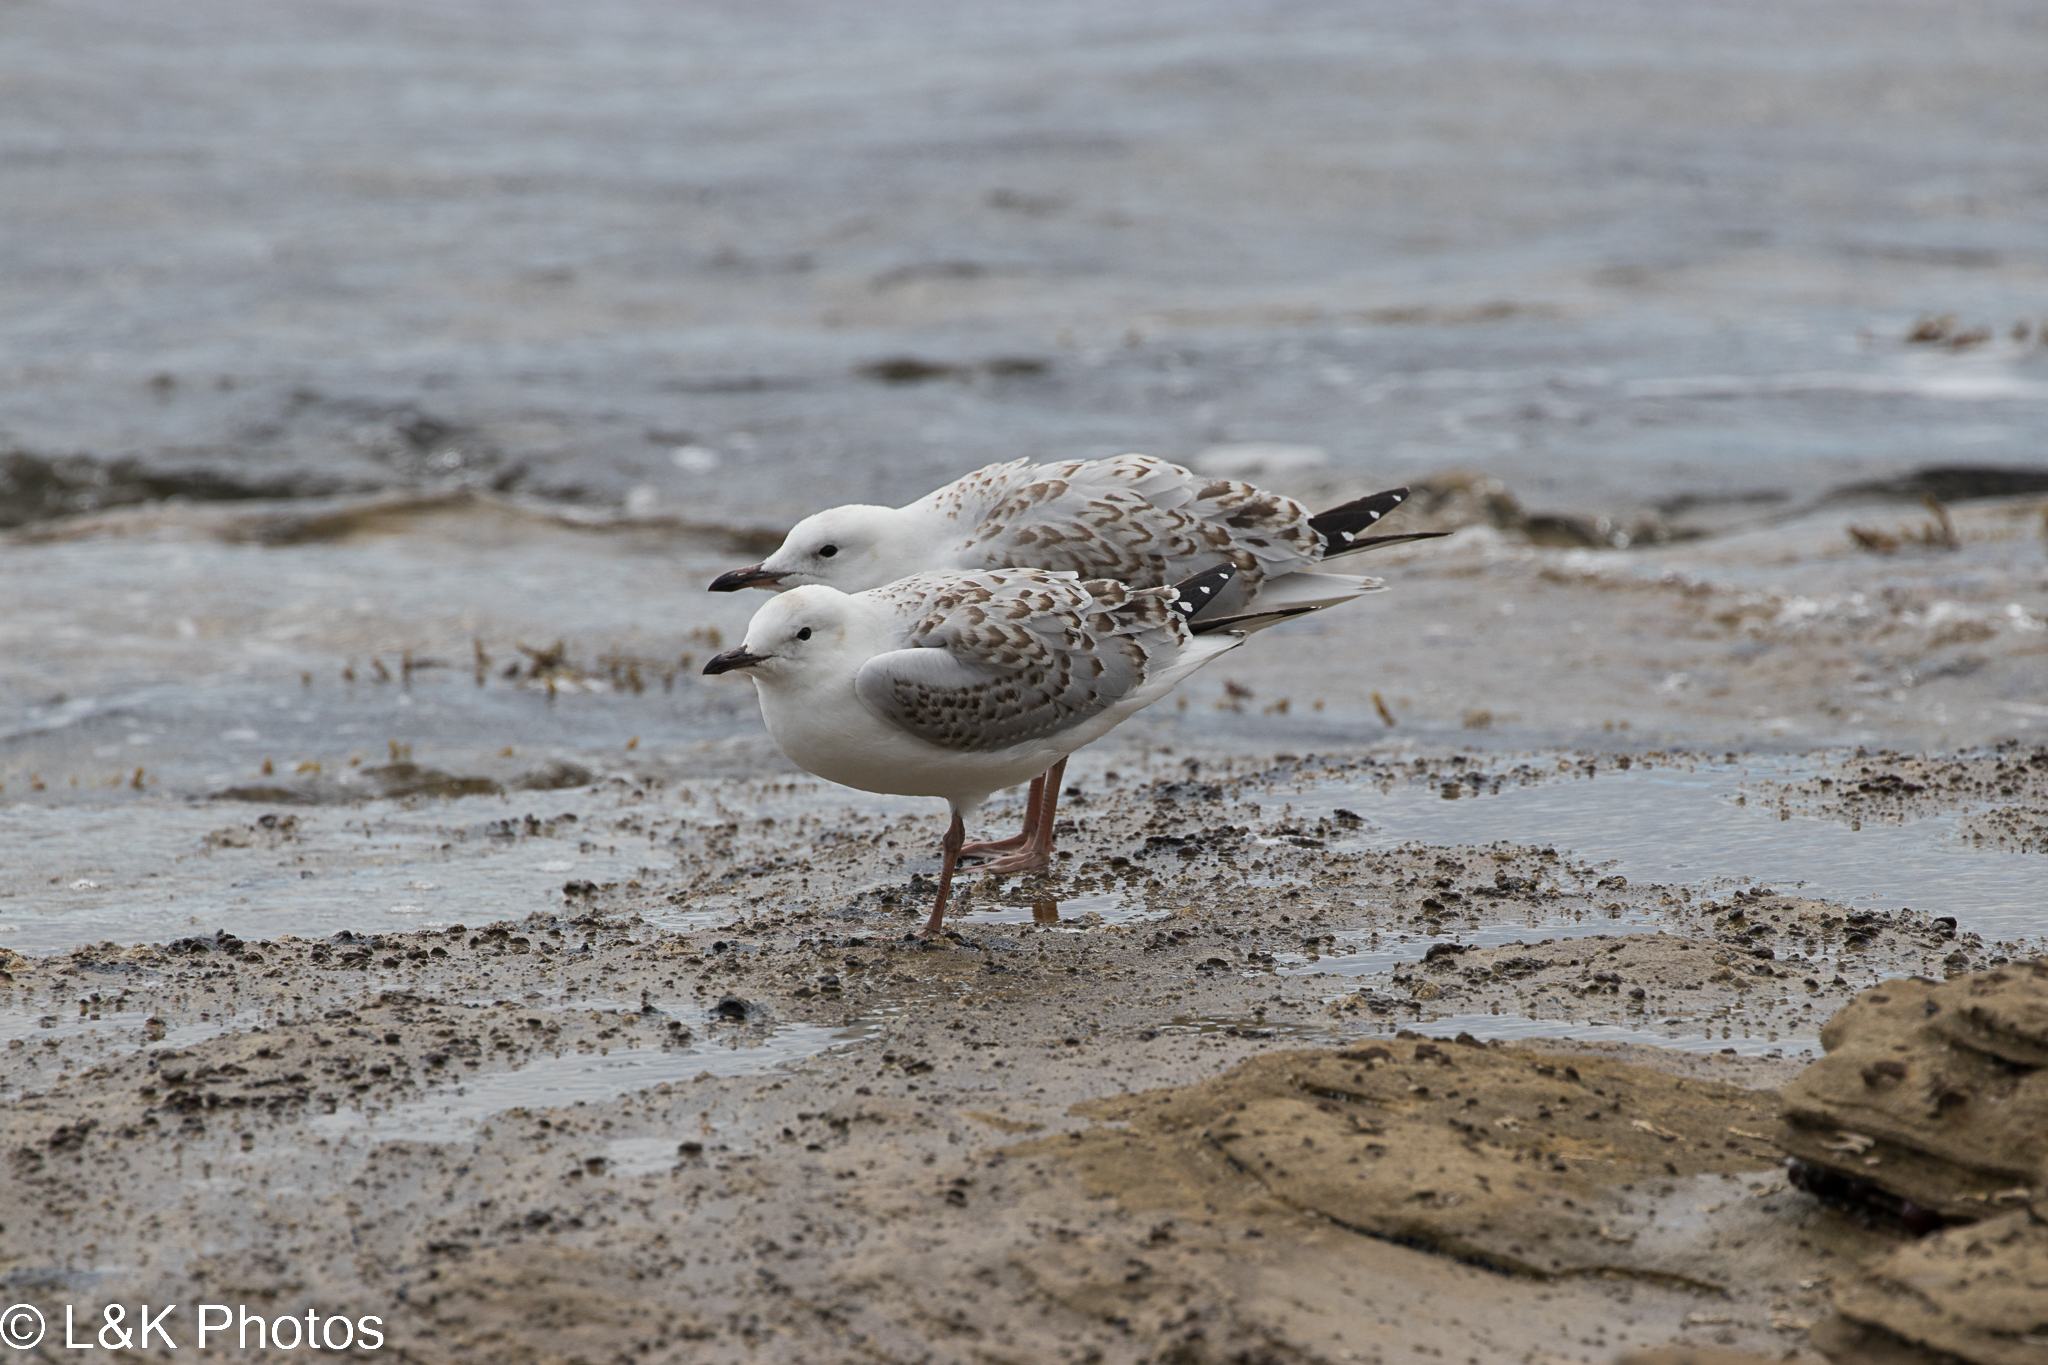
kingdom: Animalia
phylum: Chordata
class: Aves
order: Charadriiformes
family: Laridae
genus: Chroicocephalus
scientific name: Chroicocephalus novaehollandiae
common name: Silver gull
